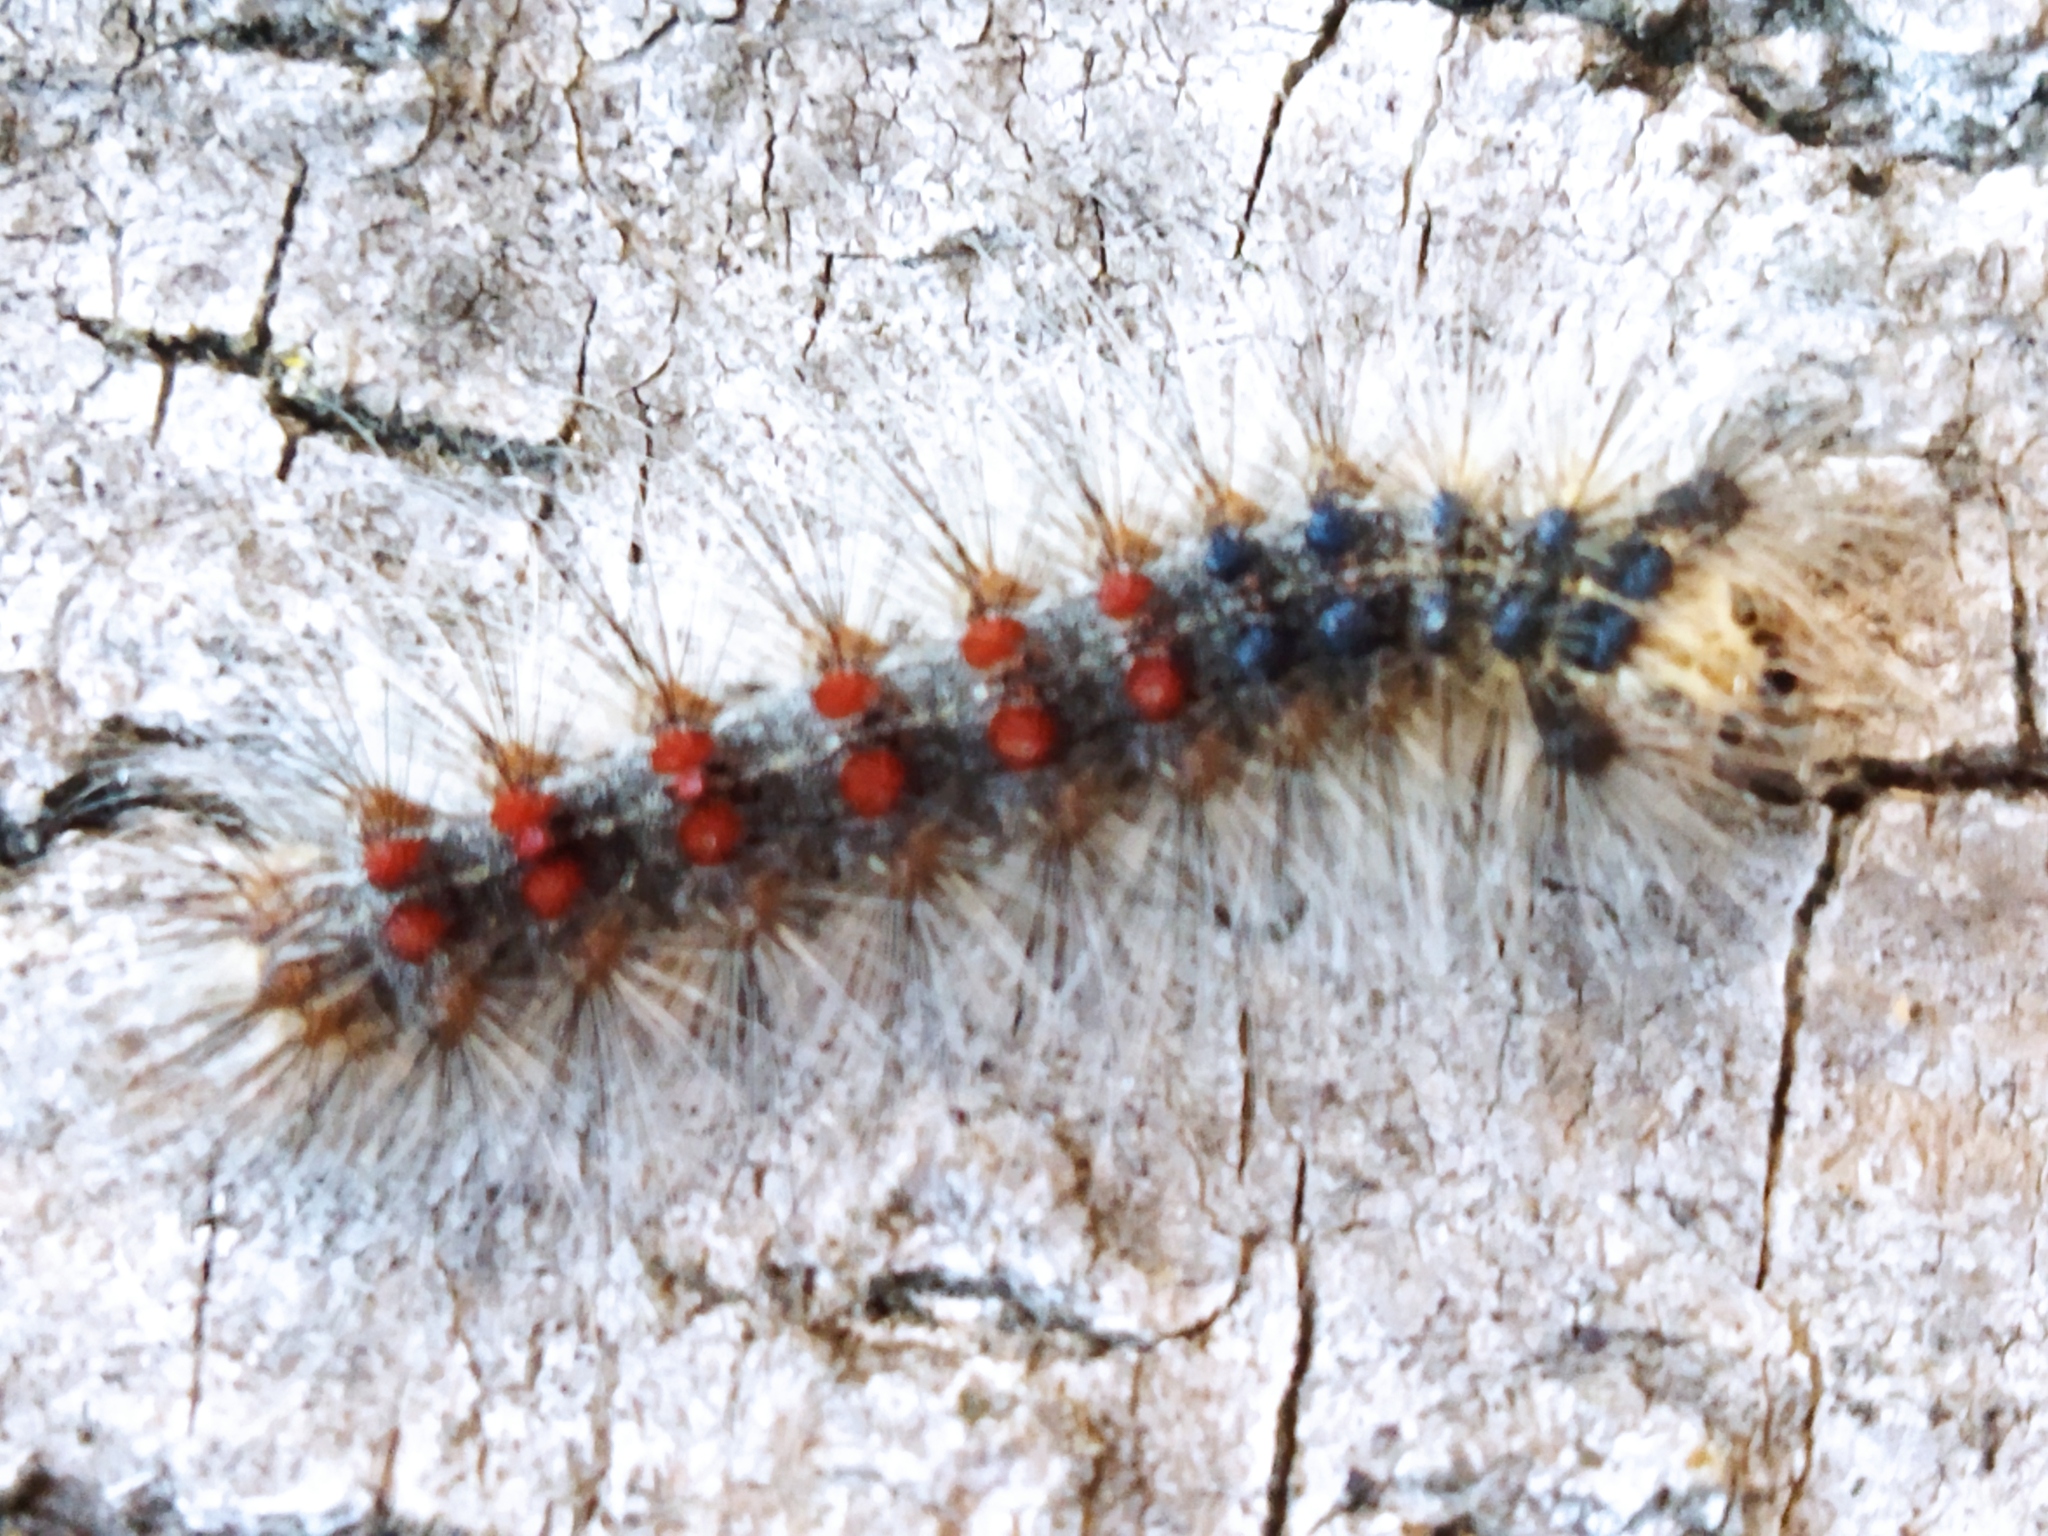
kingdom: Animalia
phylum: Arthropoda
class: Insecta
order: Lepidoptera
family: Erebidae
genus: Lymantria
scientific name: Lymantria dispar
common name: Gypsy moth
